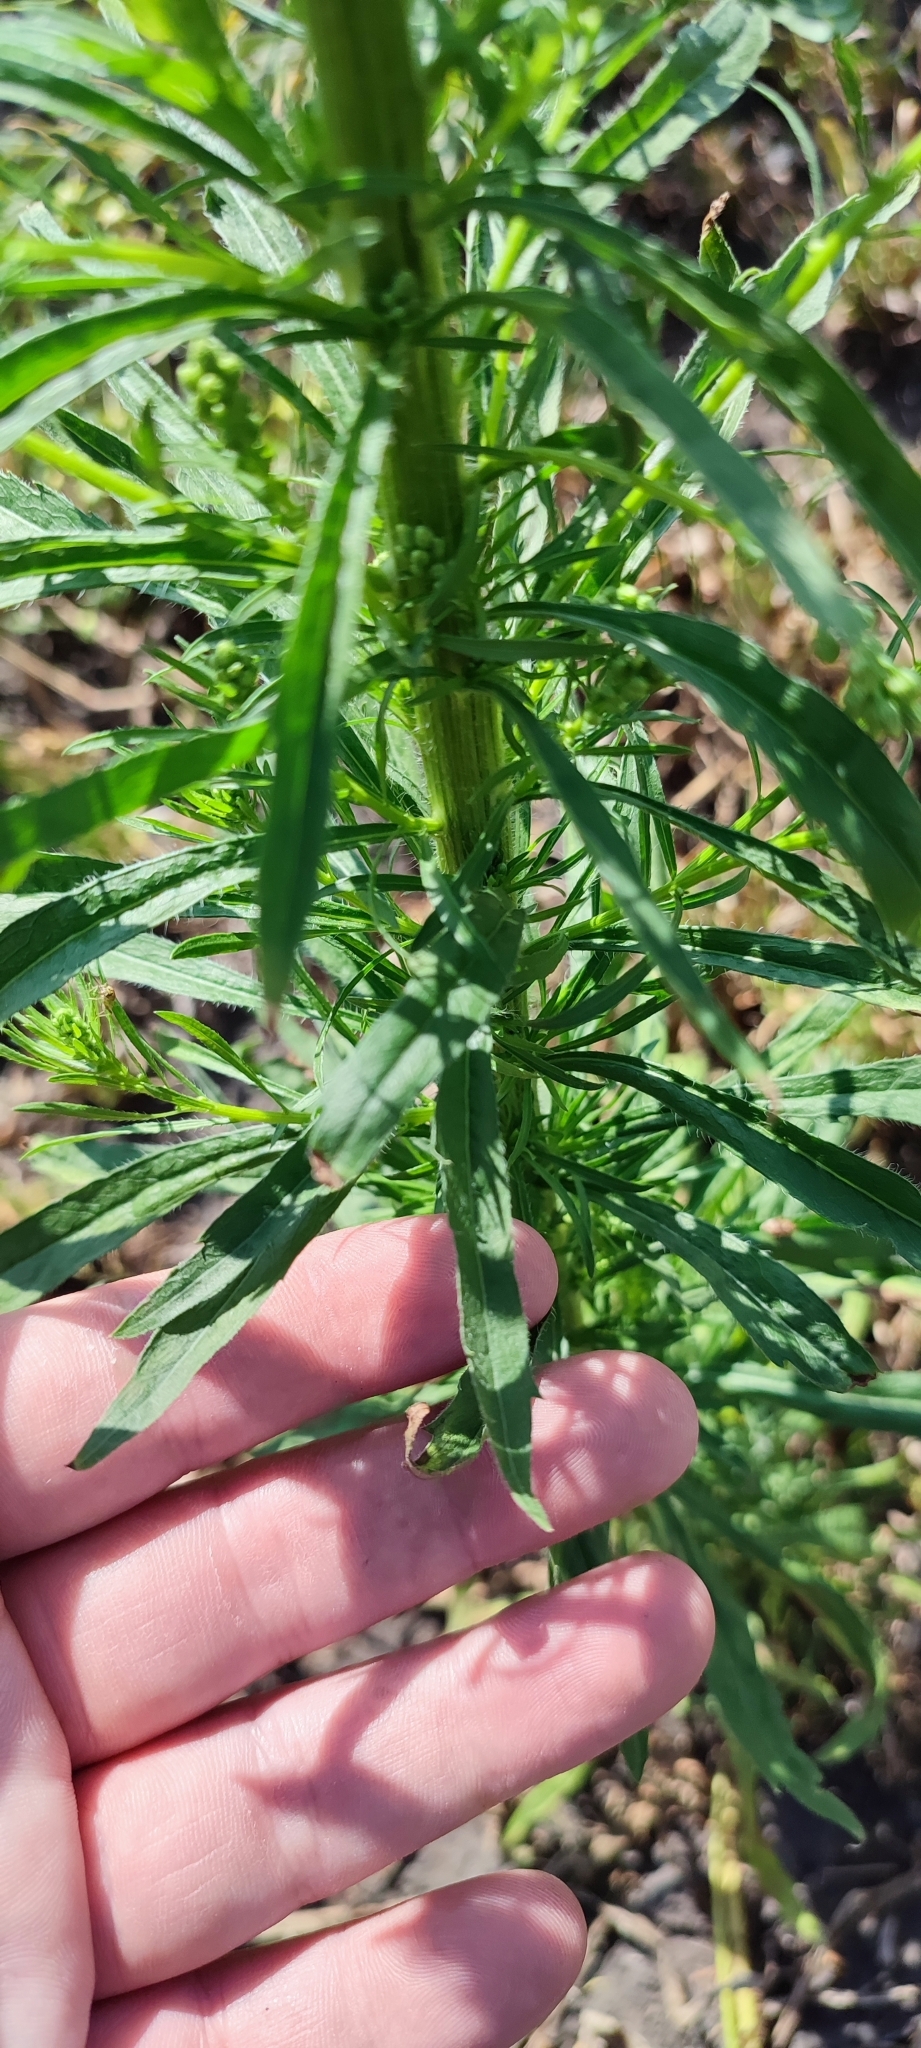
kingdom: Plantae
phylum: Tracheophyta
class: Magnoliopsida
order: Asterales
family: Asteraceae
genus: Erigeron
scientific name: Erigeron canadensis
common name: Canadian fleabane
